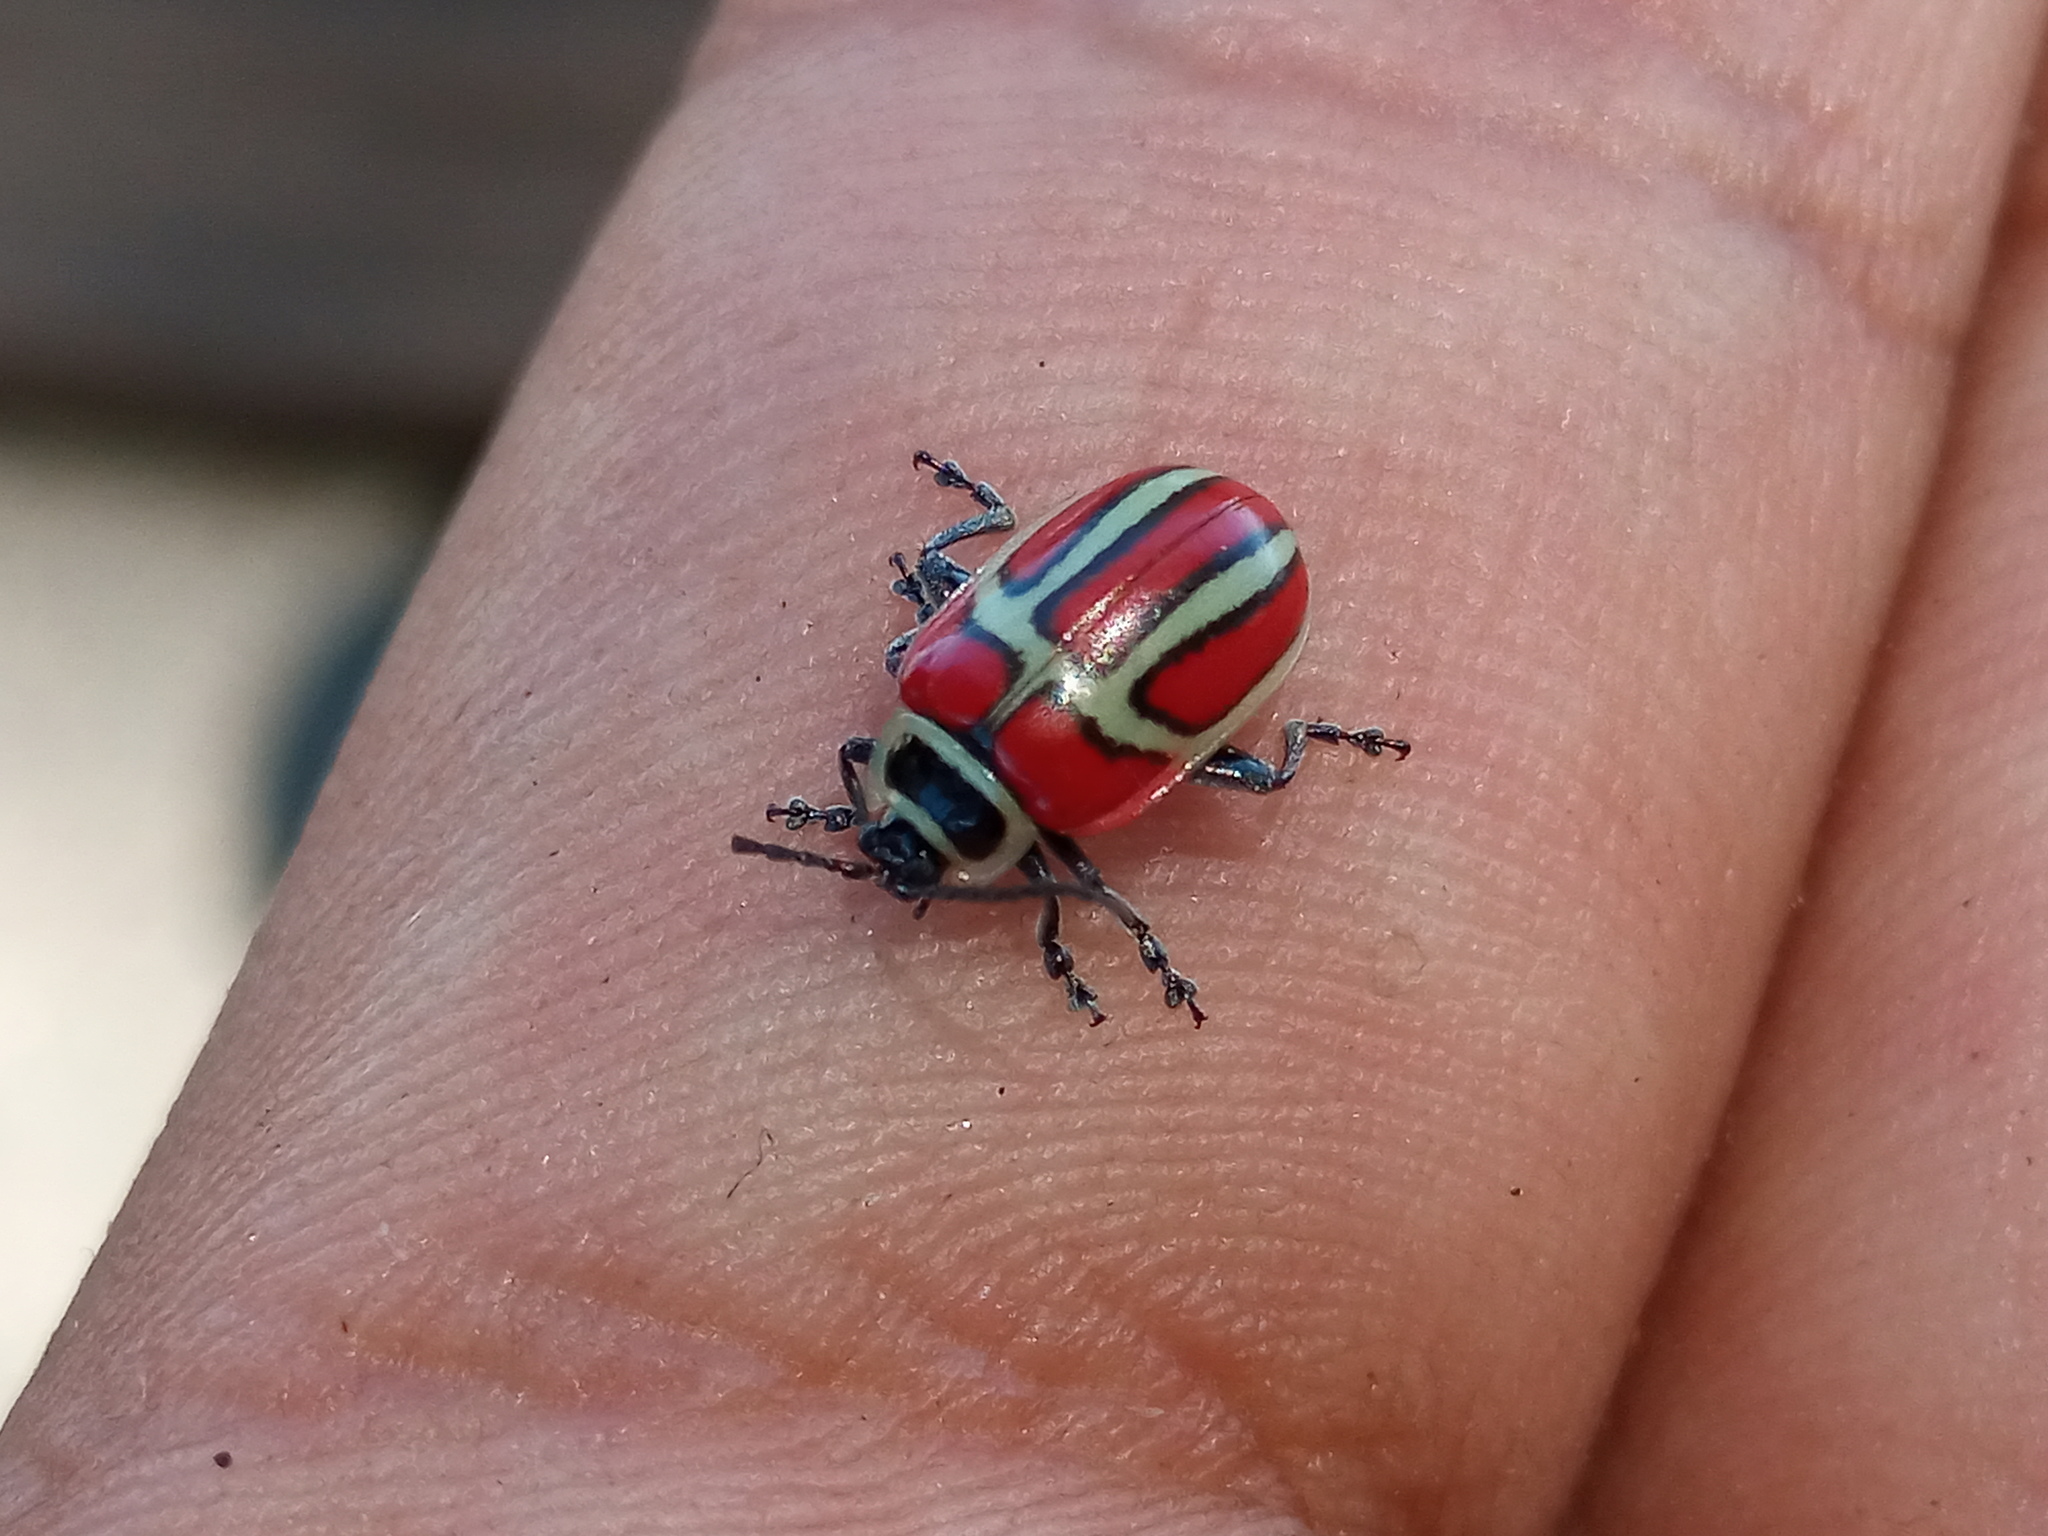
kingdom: Animalia
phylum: Arthropoda
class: Insecta
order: Coleoptera
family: Chrysomelidae
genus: Asphaera
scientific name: Asphaera
